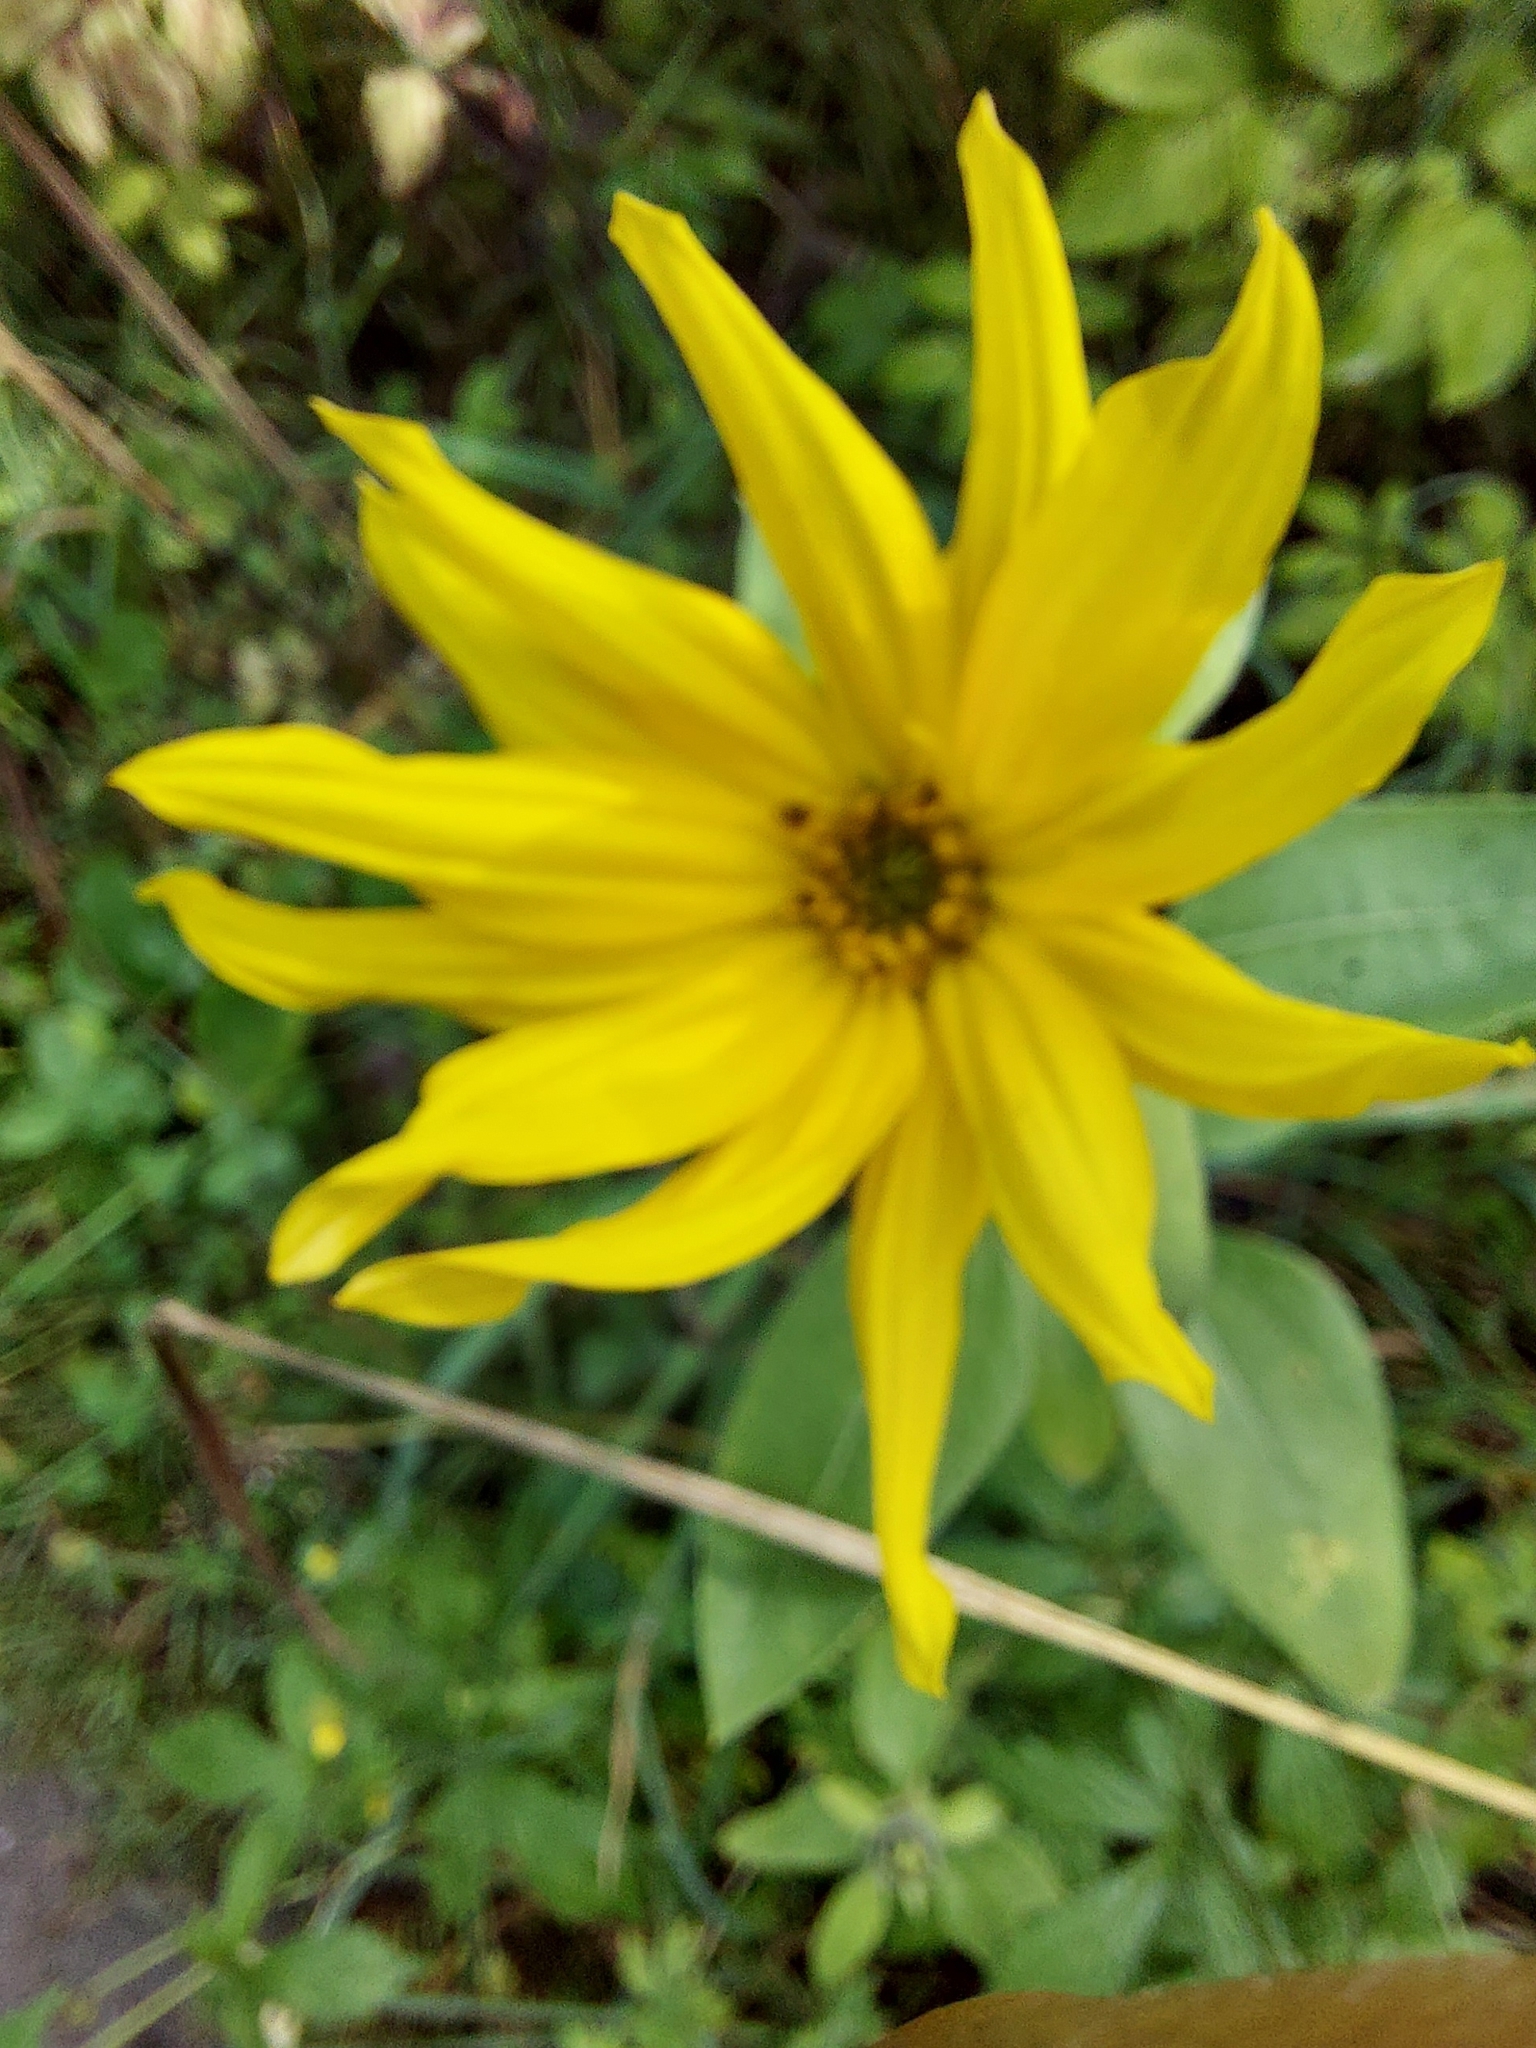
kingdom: Plantae
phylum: Tracheophyta
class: Magnoliopsida
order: Asterales
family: Asteraceae
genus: Helianthus
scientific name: Helianthus annuus
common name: Sunflower
